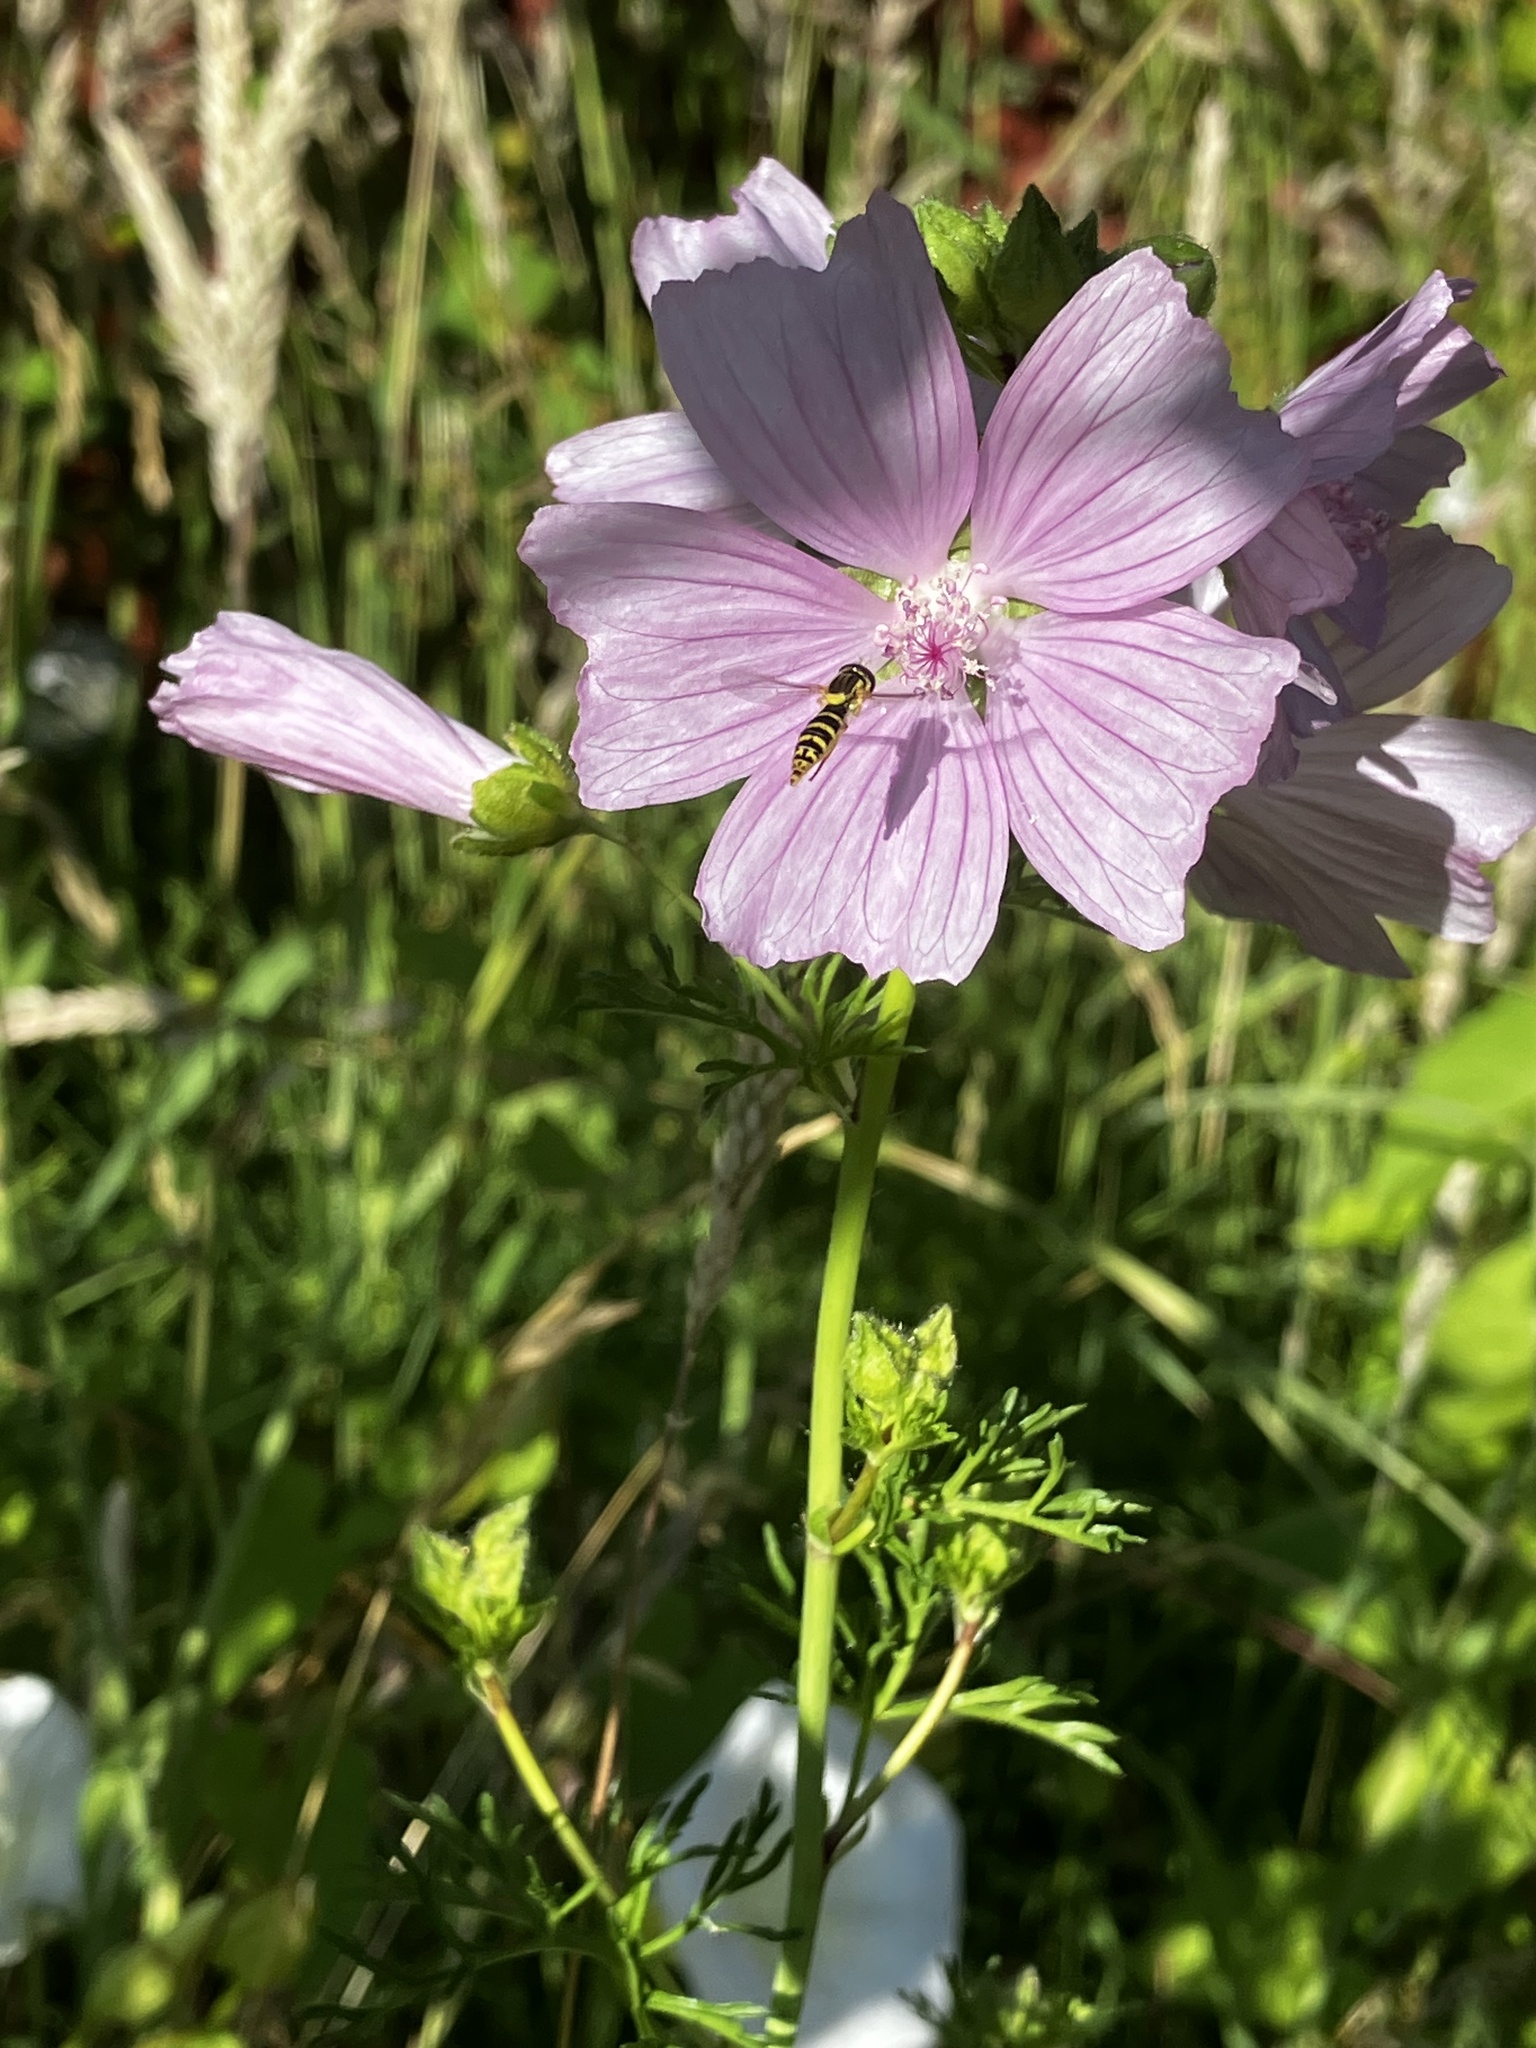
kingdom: Plantae
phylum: Tracheophyta
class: Magnoliopsida
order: Malvales
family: Malvaceae
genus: Malva
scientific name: Malva moschata
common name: Musk mallow
